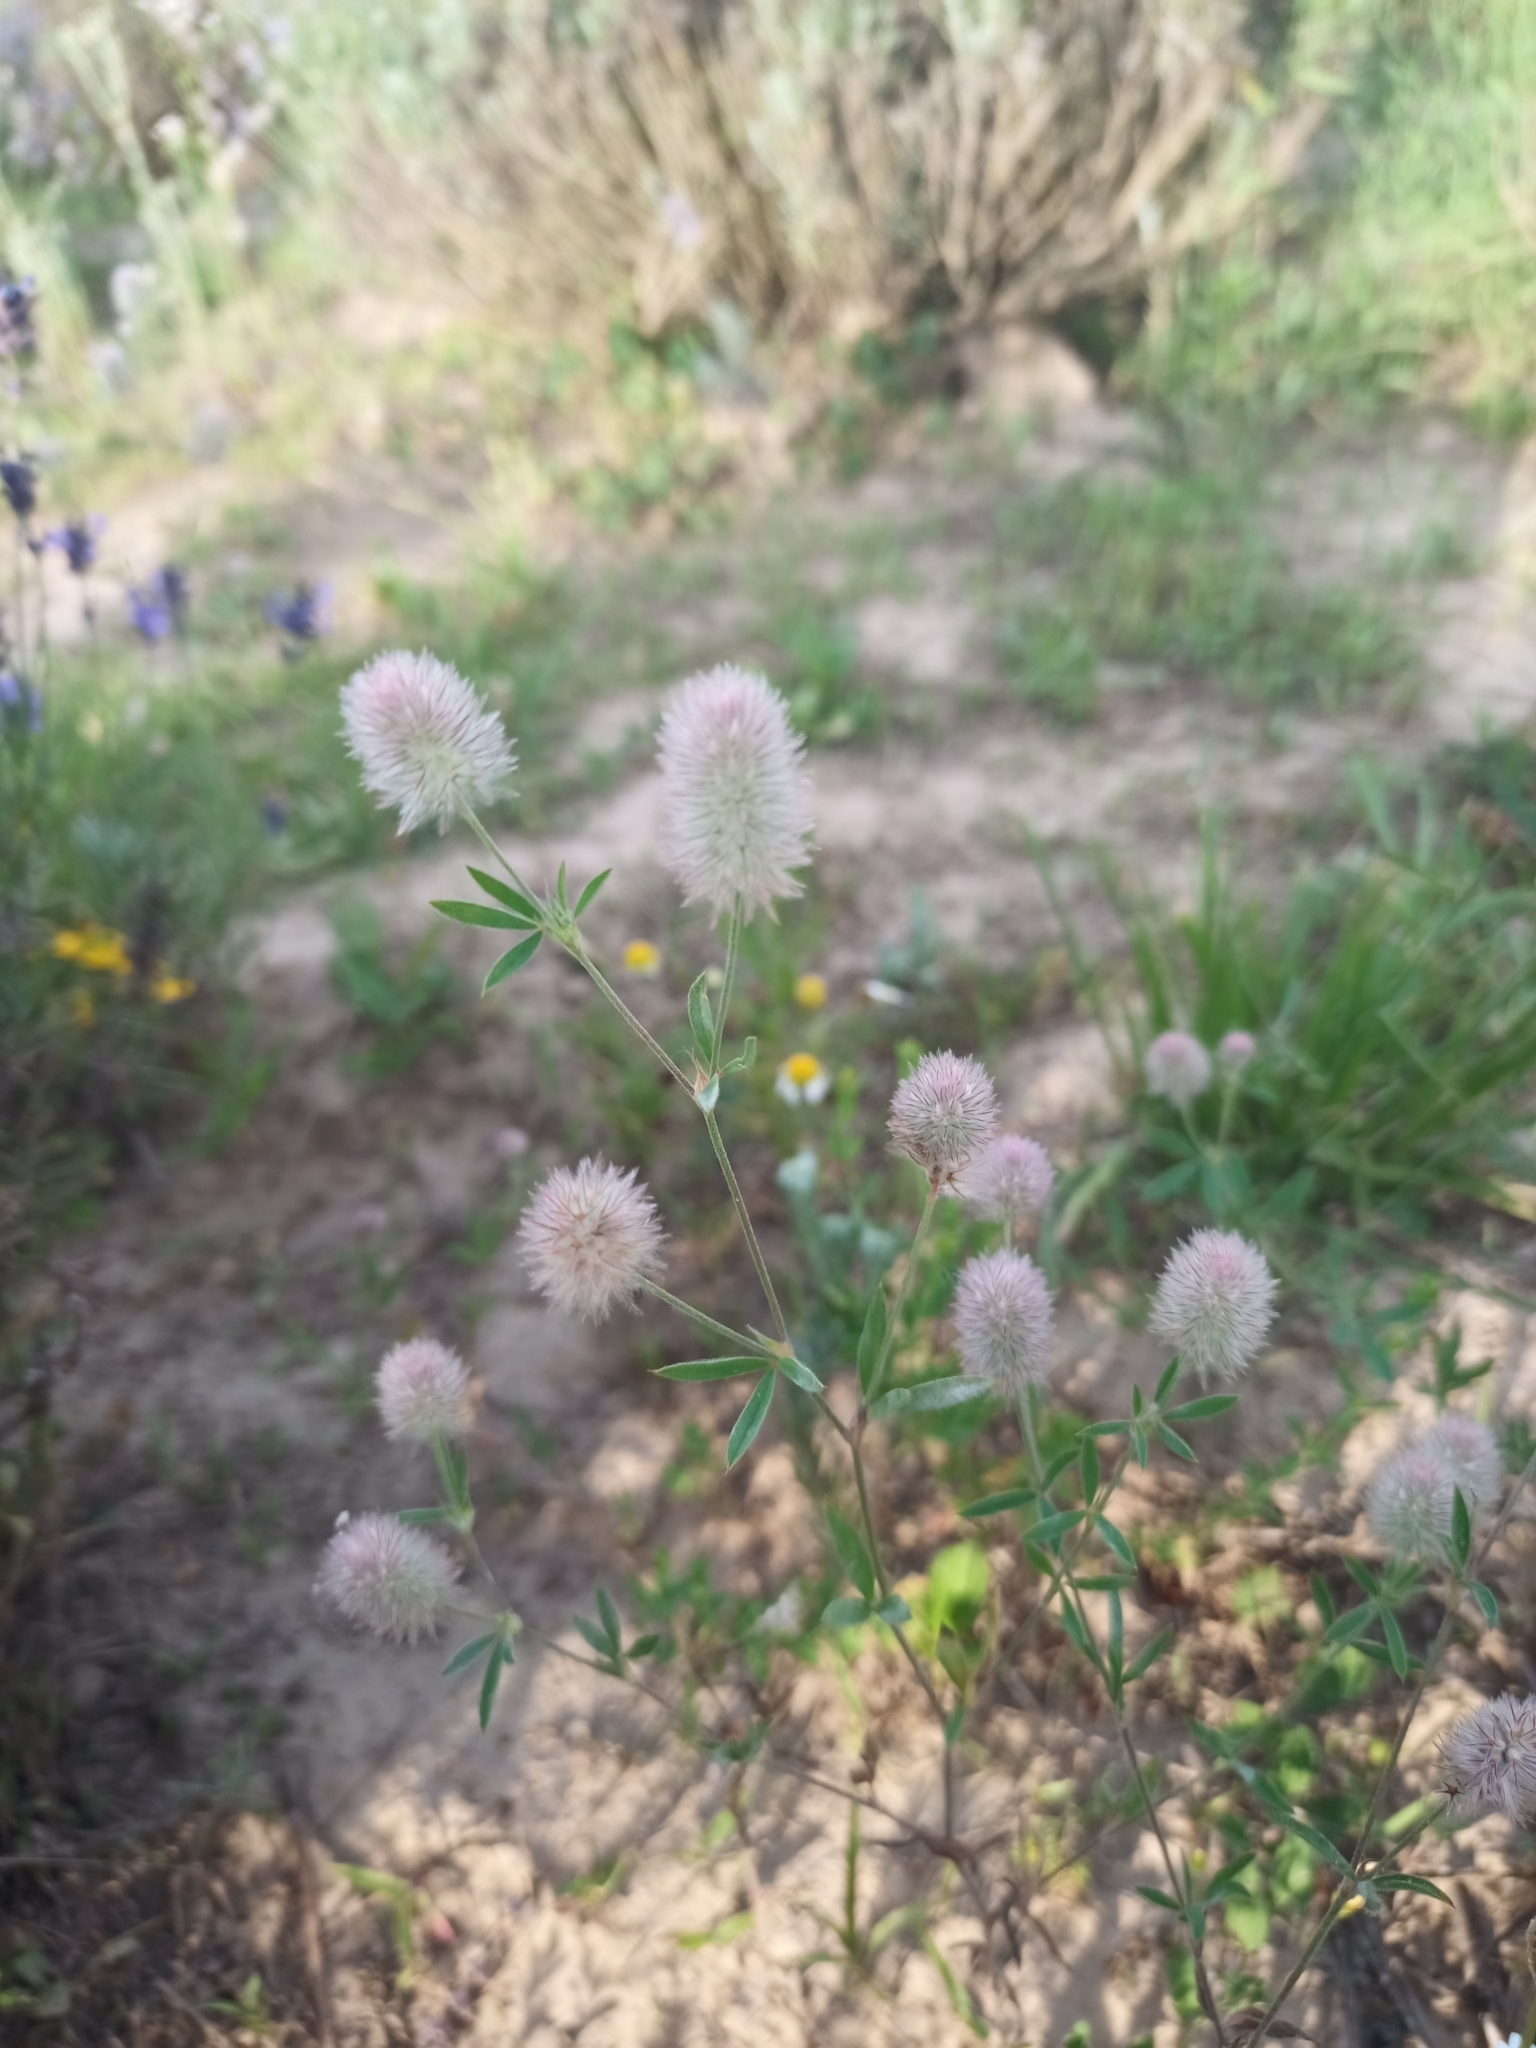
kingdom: Plantae
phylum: Tracheophyta
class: Magnoliopsida
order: Fabales
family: Fabaceae
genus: Trifolium
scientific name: Trifolium arvense
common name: Hare's-foot clover
